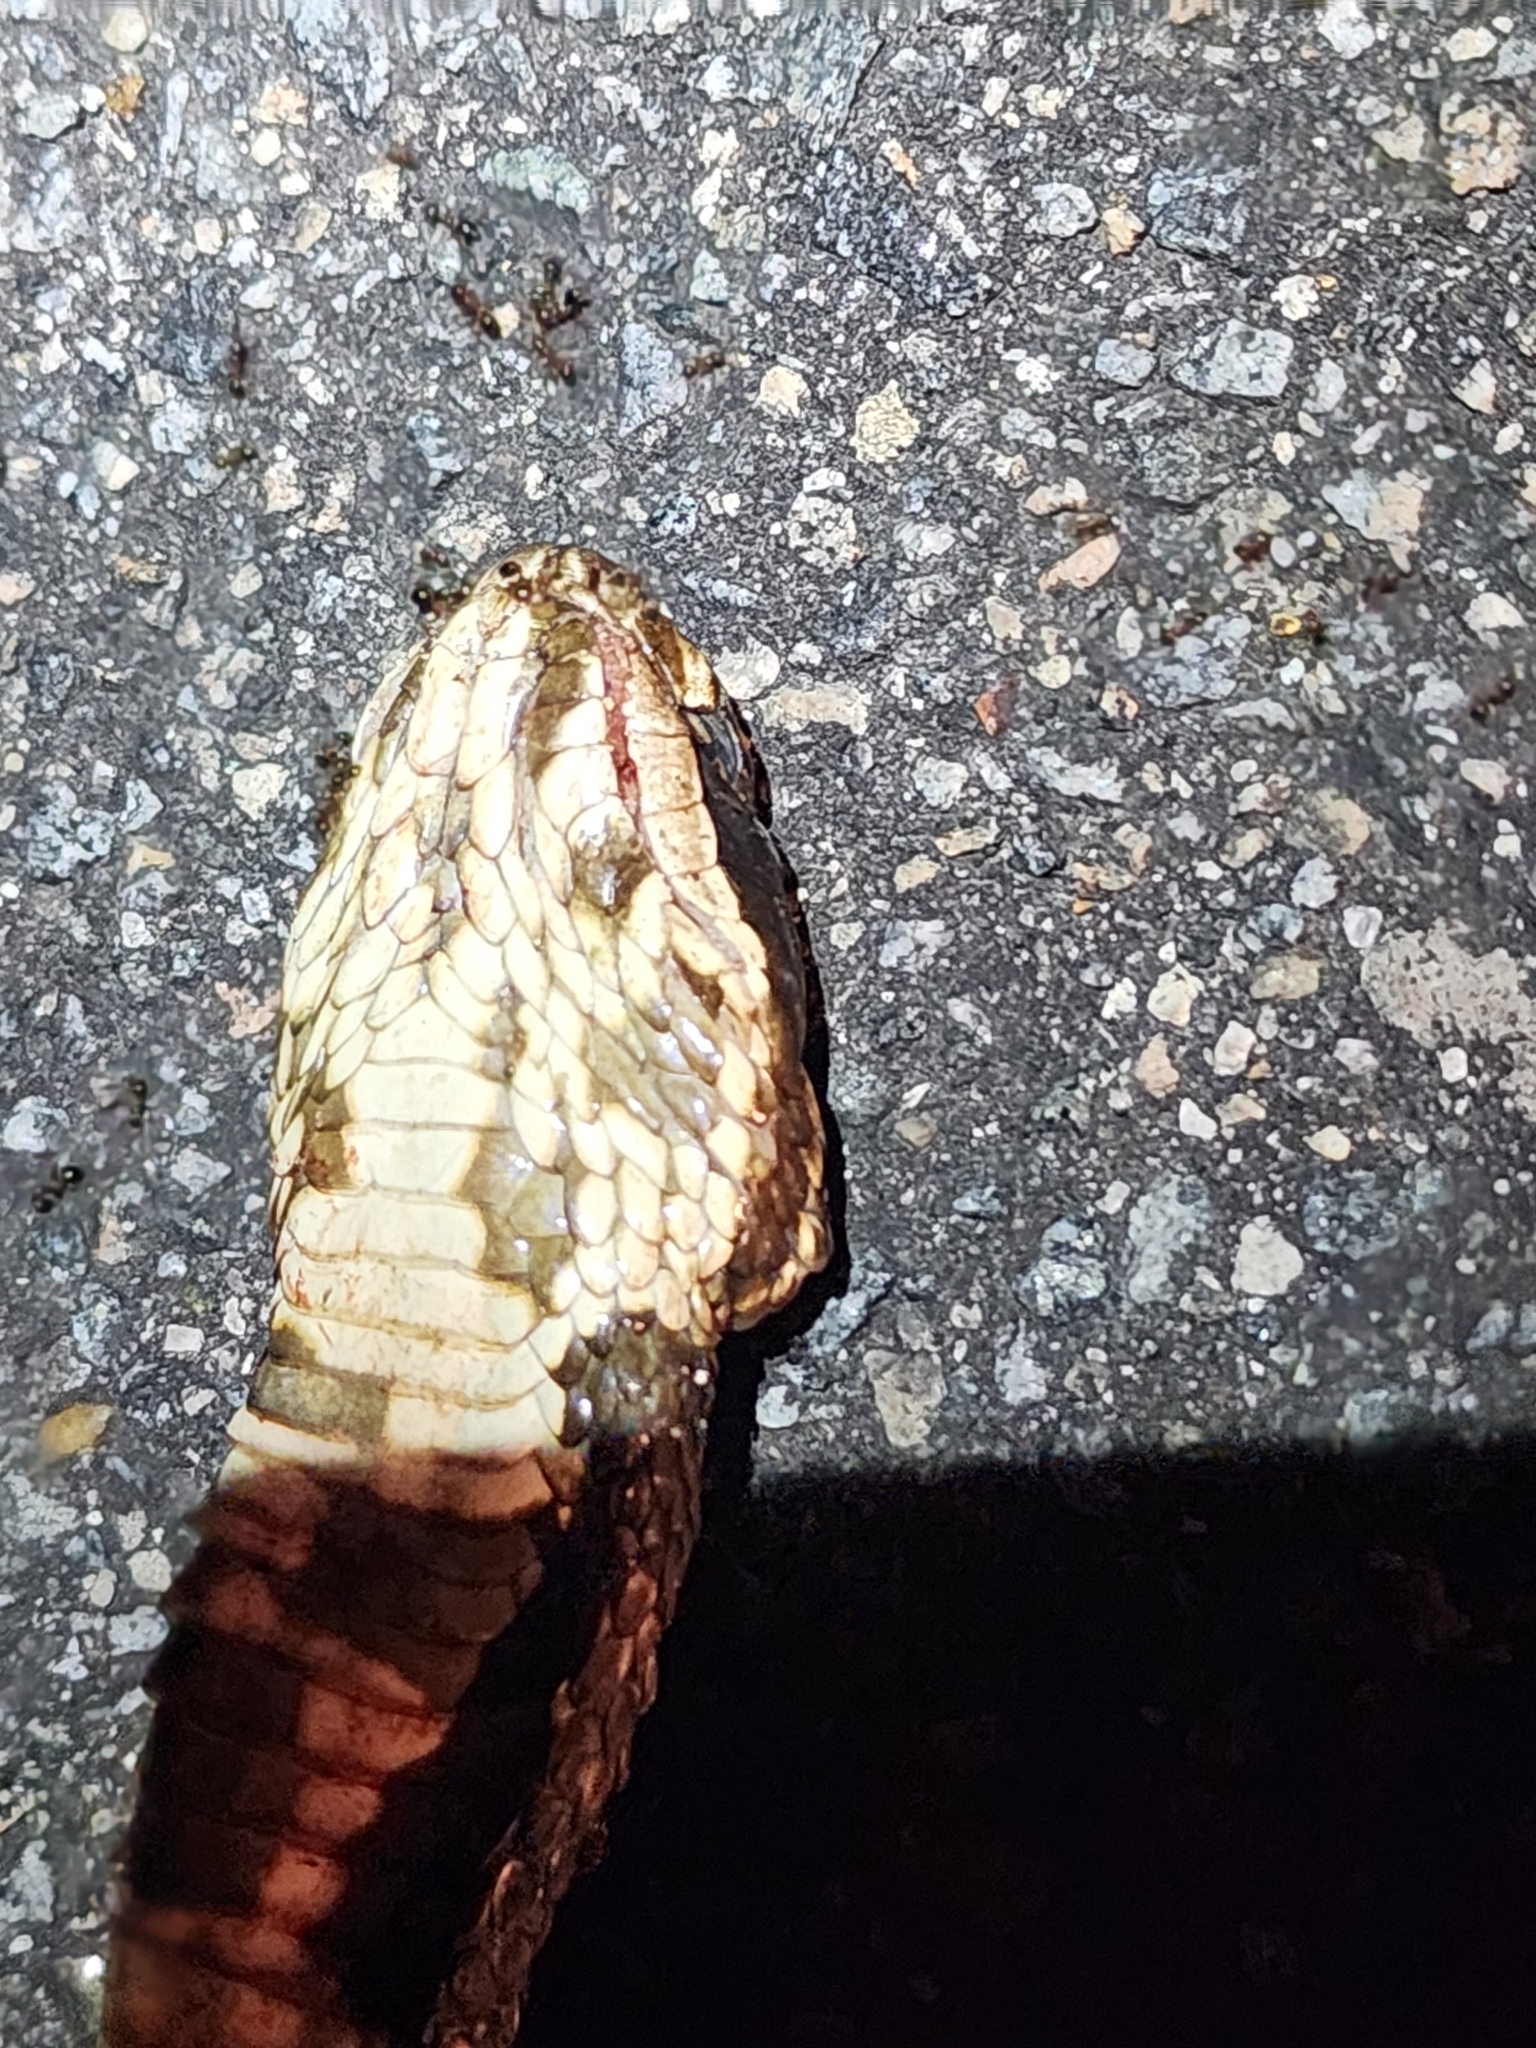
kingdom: Animalia
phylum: Chordata
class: Squamata
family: Viperidae
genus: Agkistrodon
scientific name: Agkistrodon conanti
